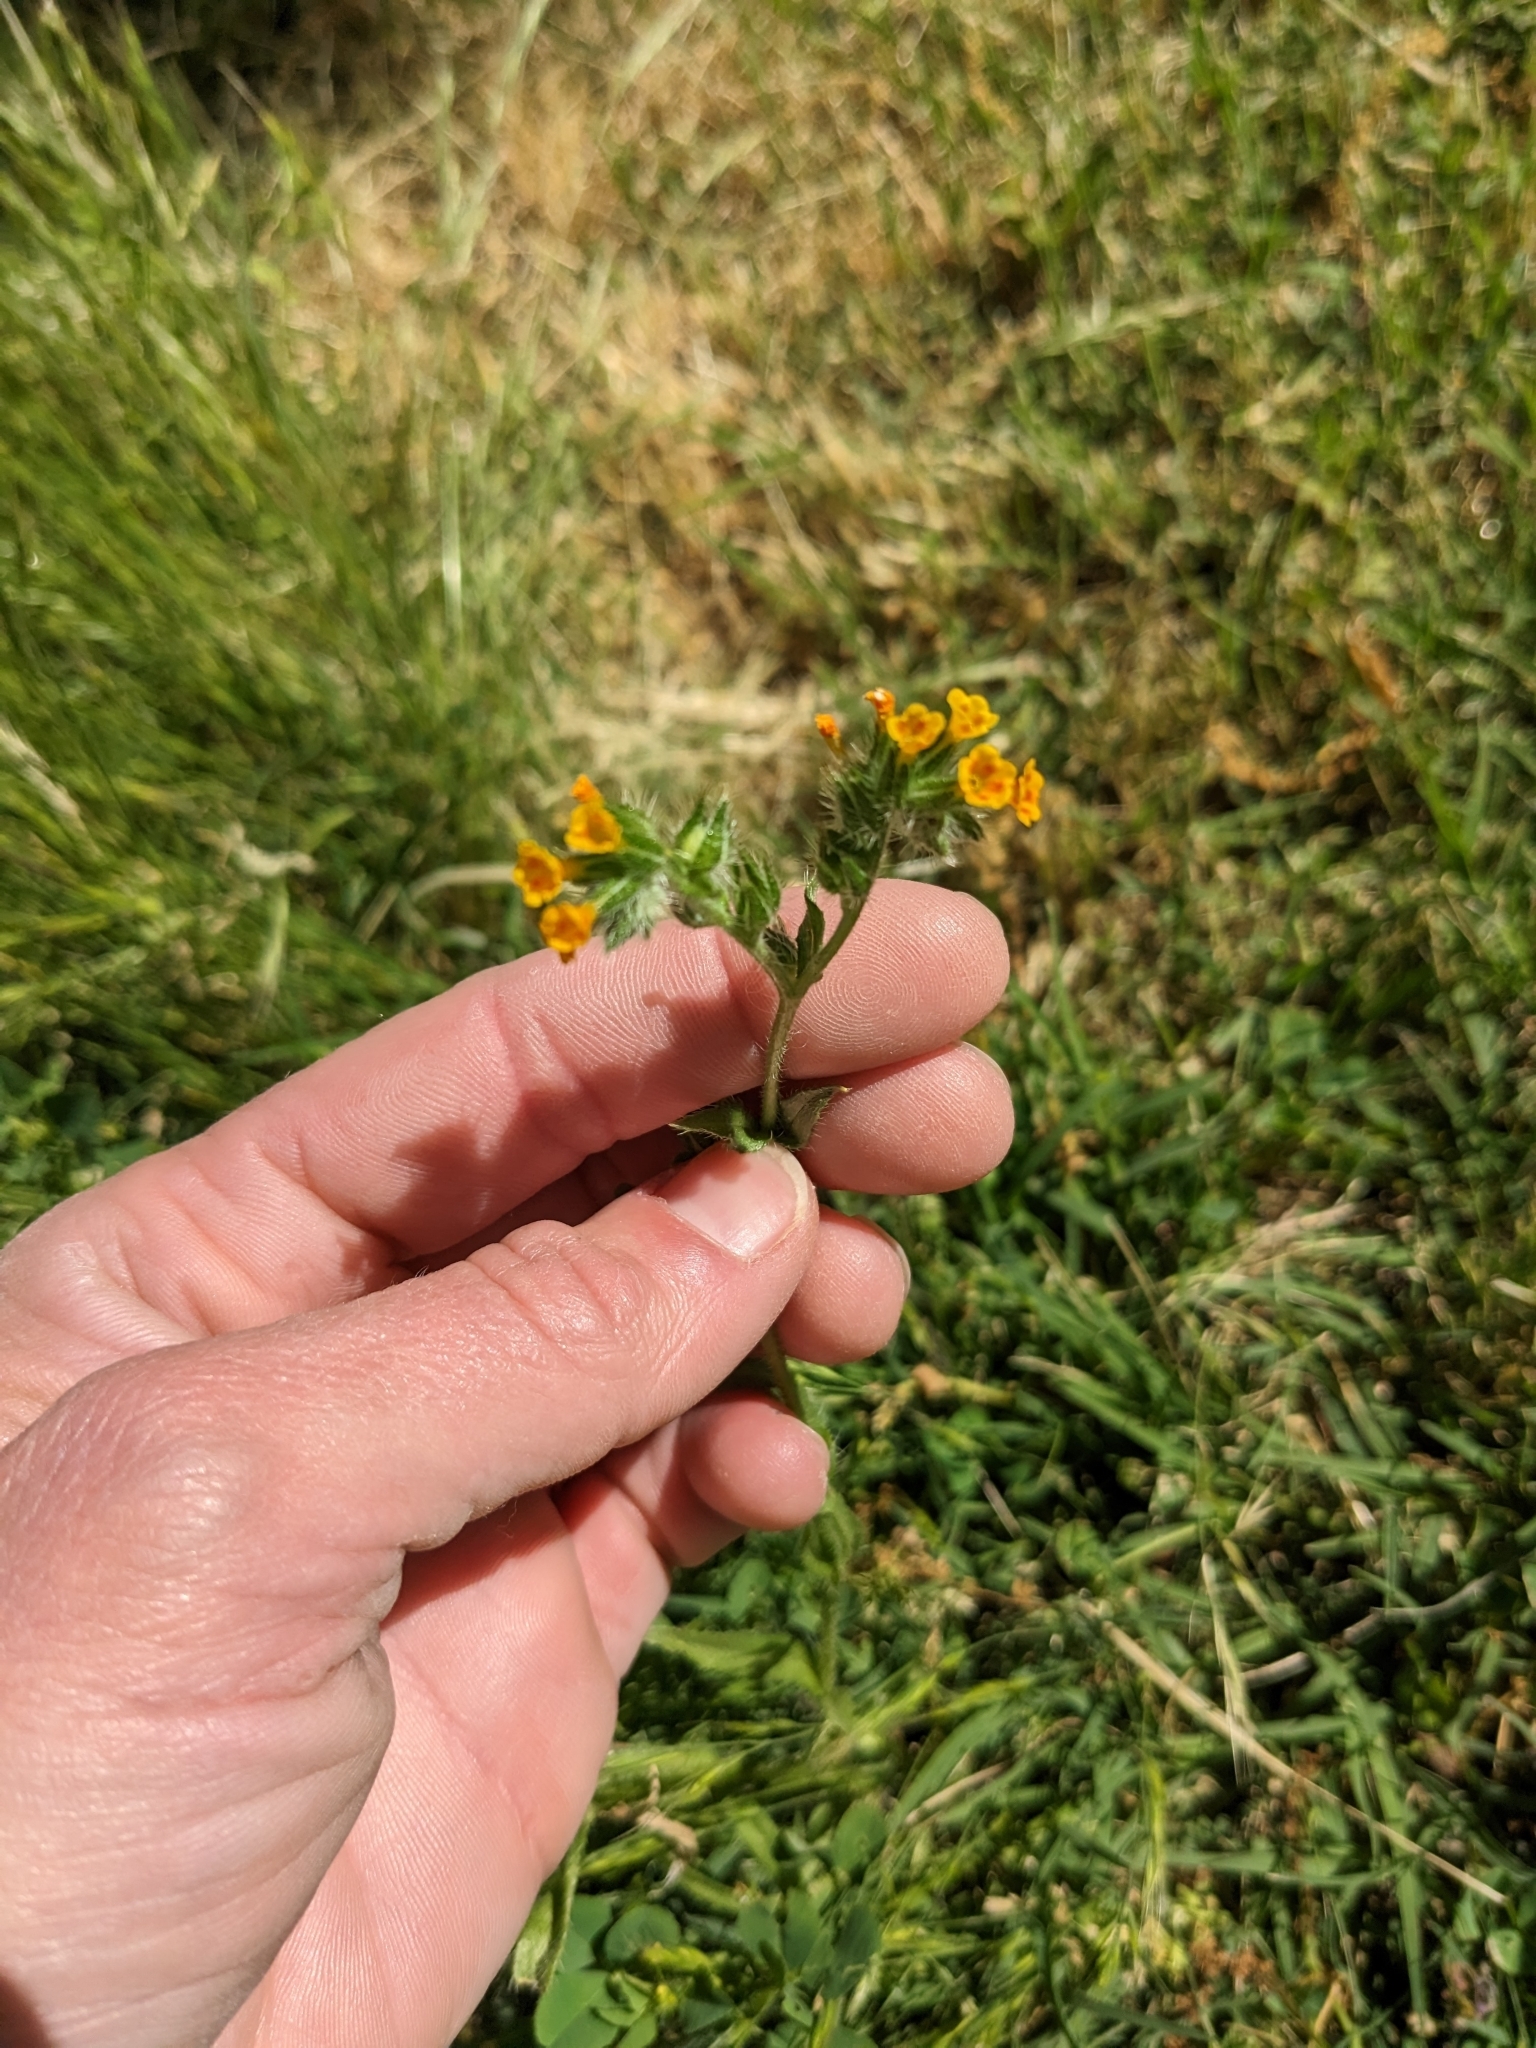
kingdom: Plantae
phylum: Tracheophyta
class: Magnoliopsida
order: Boraginales
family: Boraginaceae
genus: Amsinckia
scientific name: Amsinckia menziesii
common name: Menzies' fiddleneck
